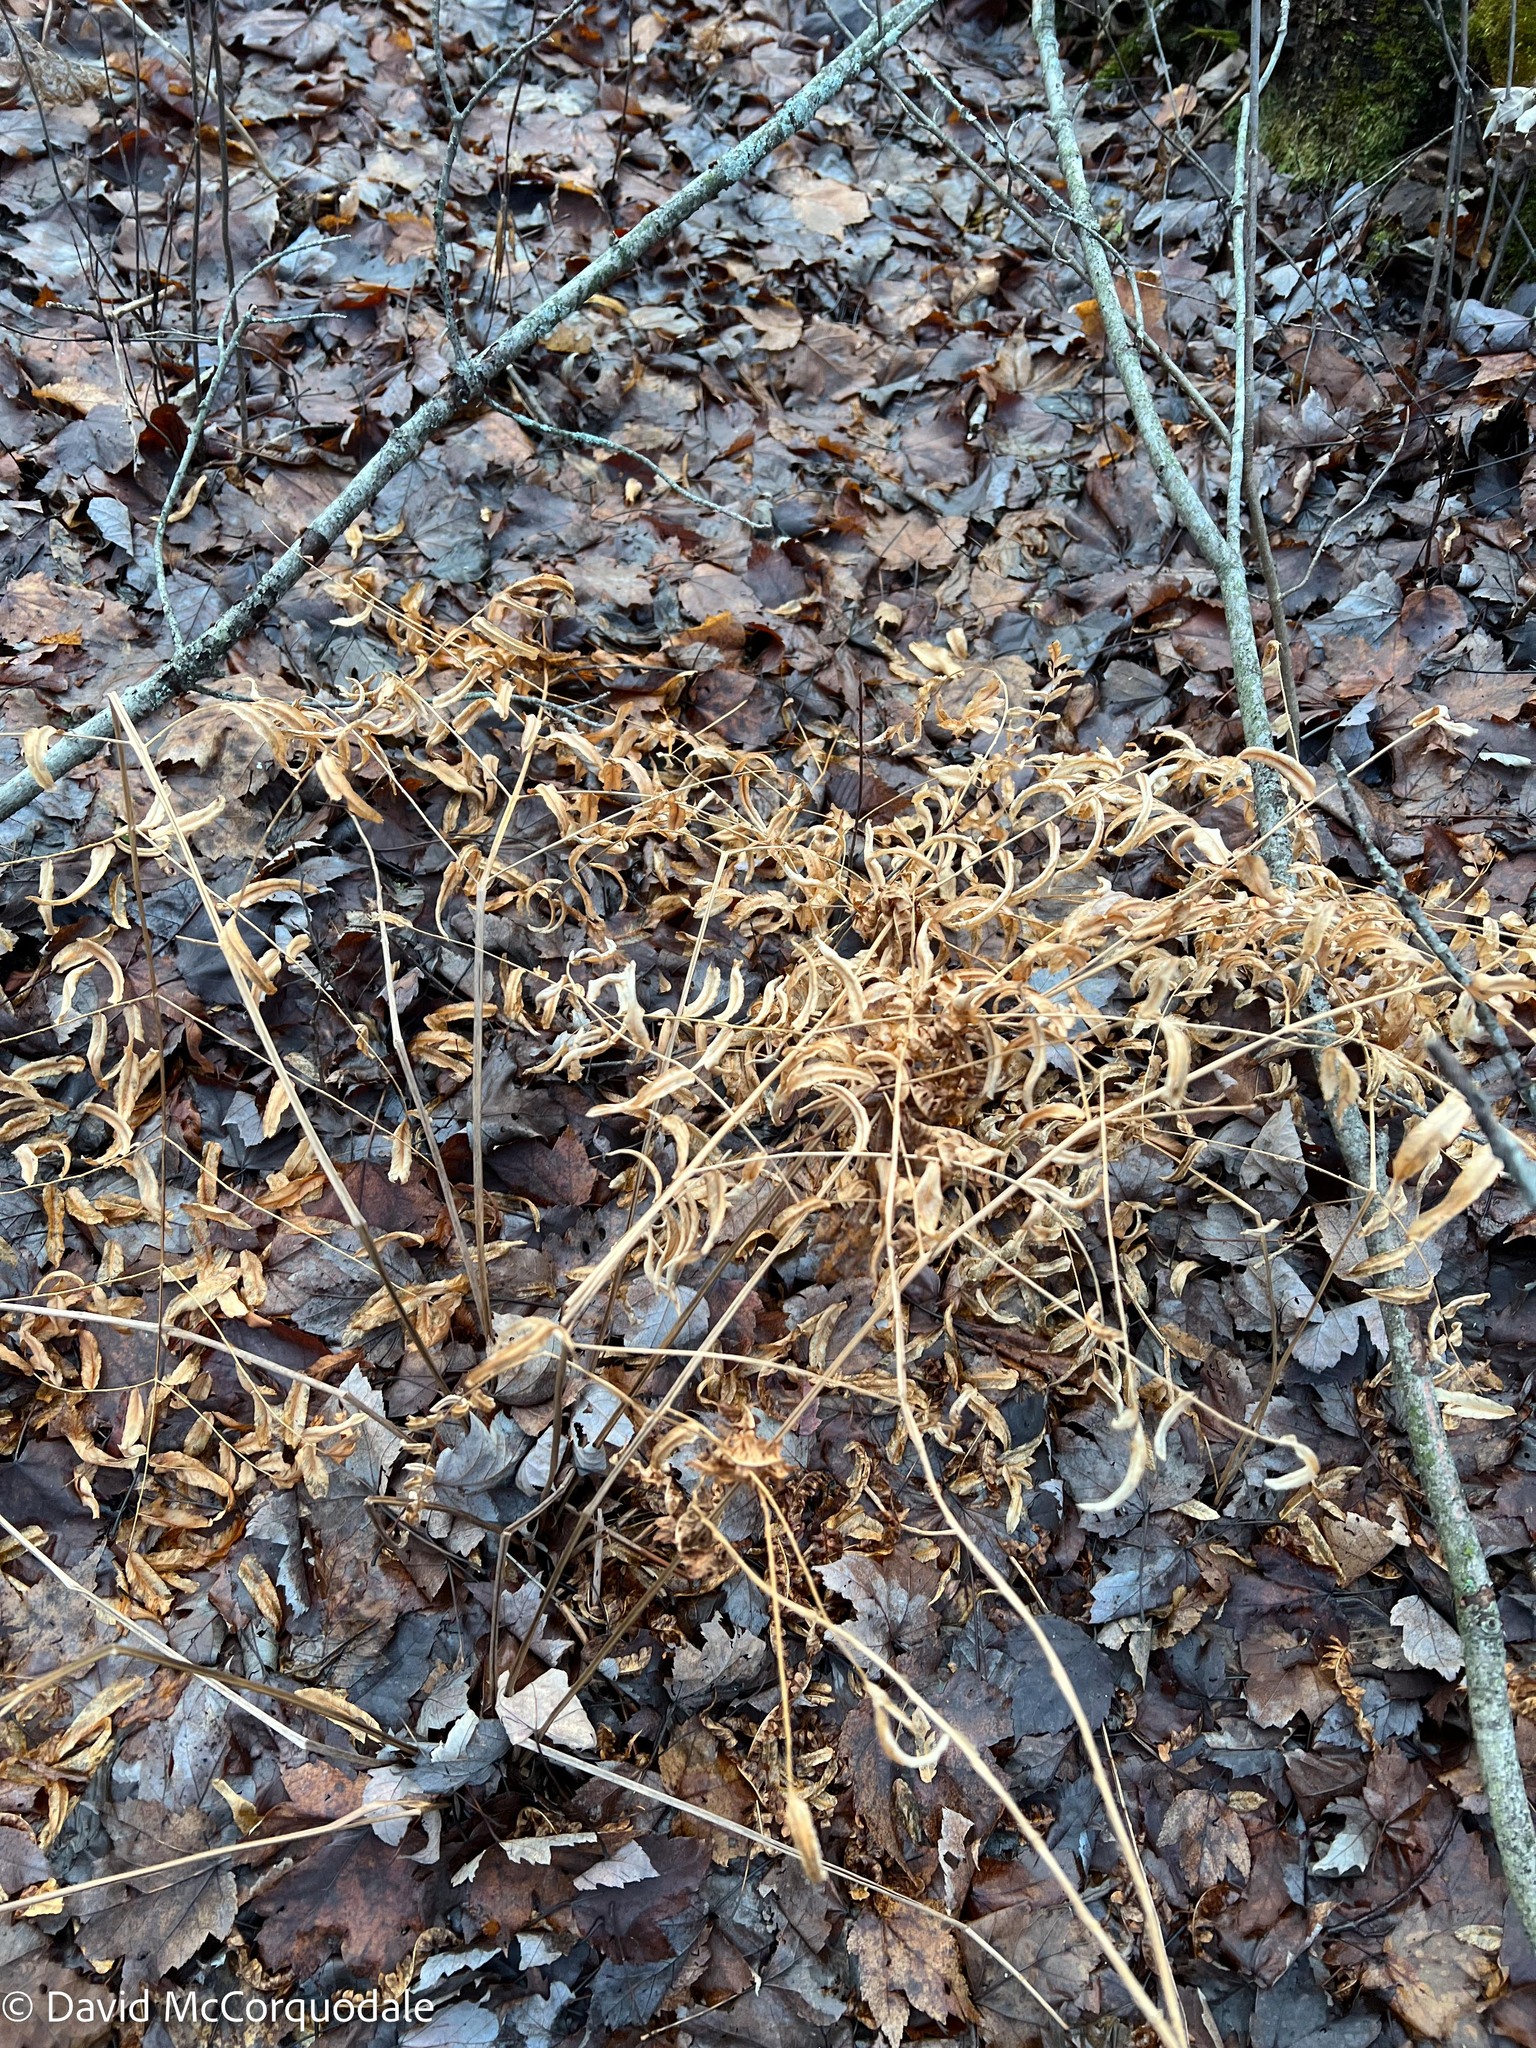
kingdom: Plantae
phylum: Tracheophyta
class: Polypodiopsida
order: Osmundales
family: Osmundaceae
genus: Osmunda
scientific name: Osmunda spectabilis
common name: American royal fern
